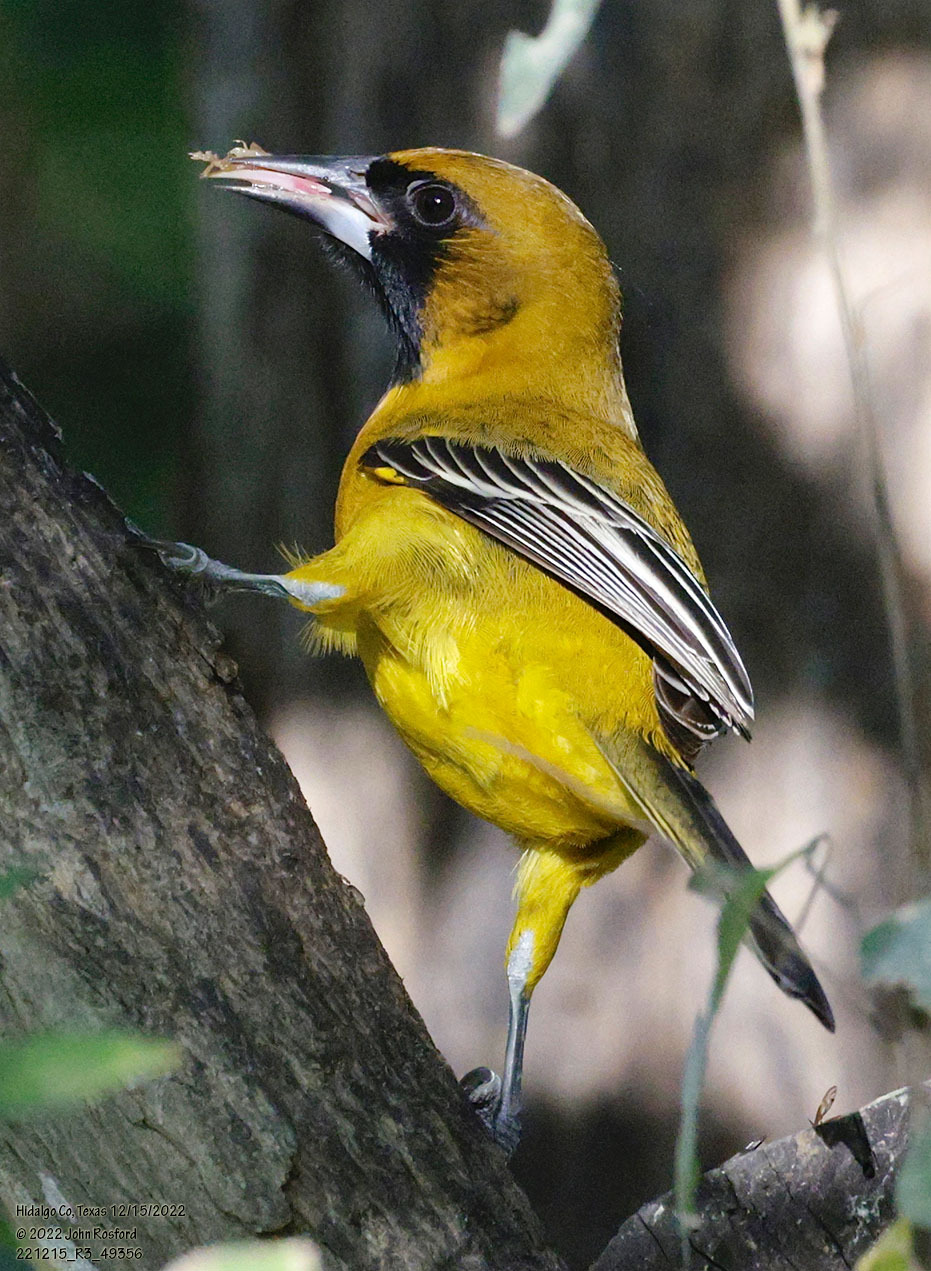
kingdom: Animalia
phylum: Chordata
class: Aves
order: Passeriformes
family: Icteridae
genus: Icterus
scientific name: Icterus
